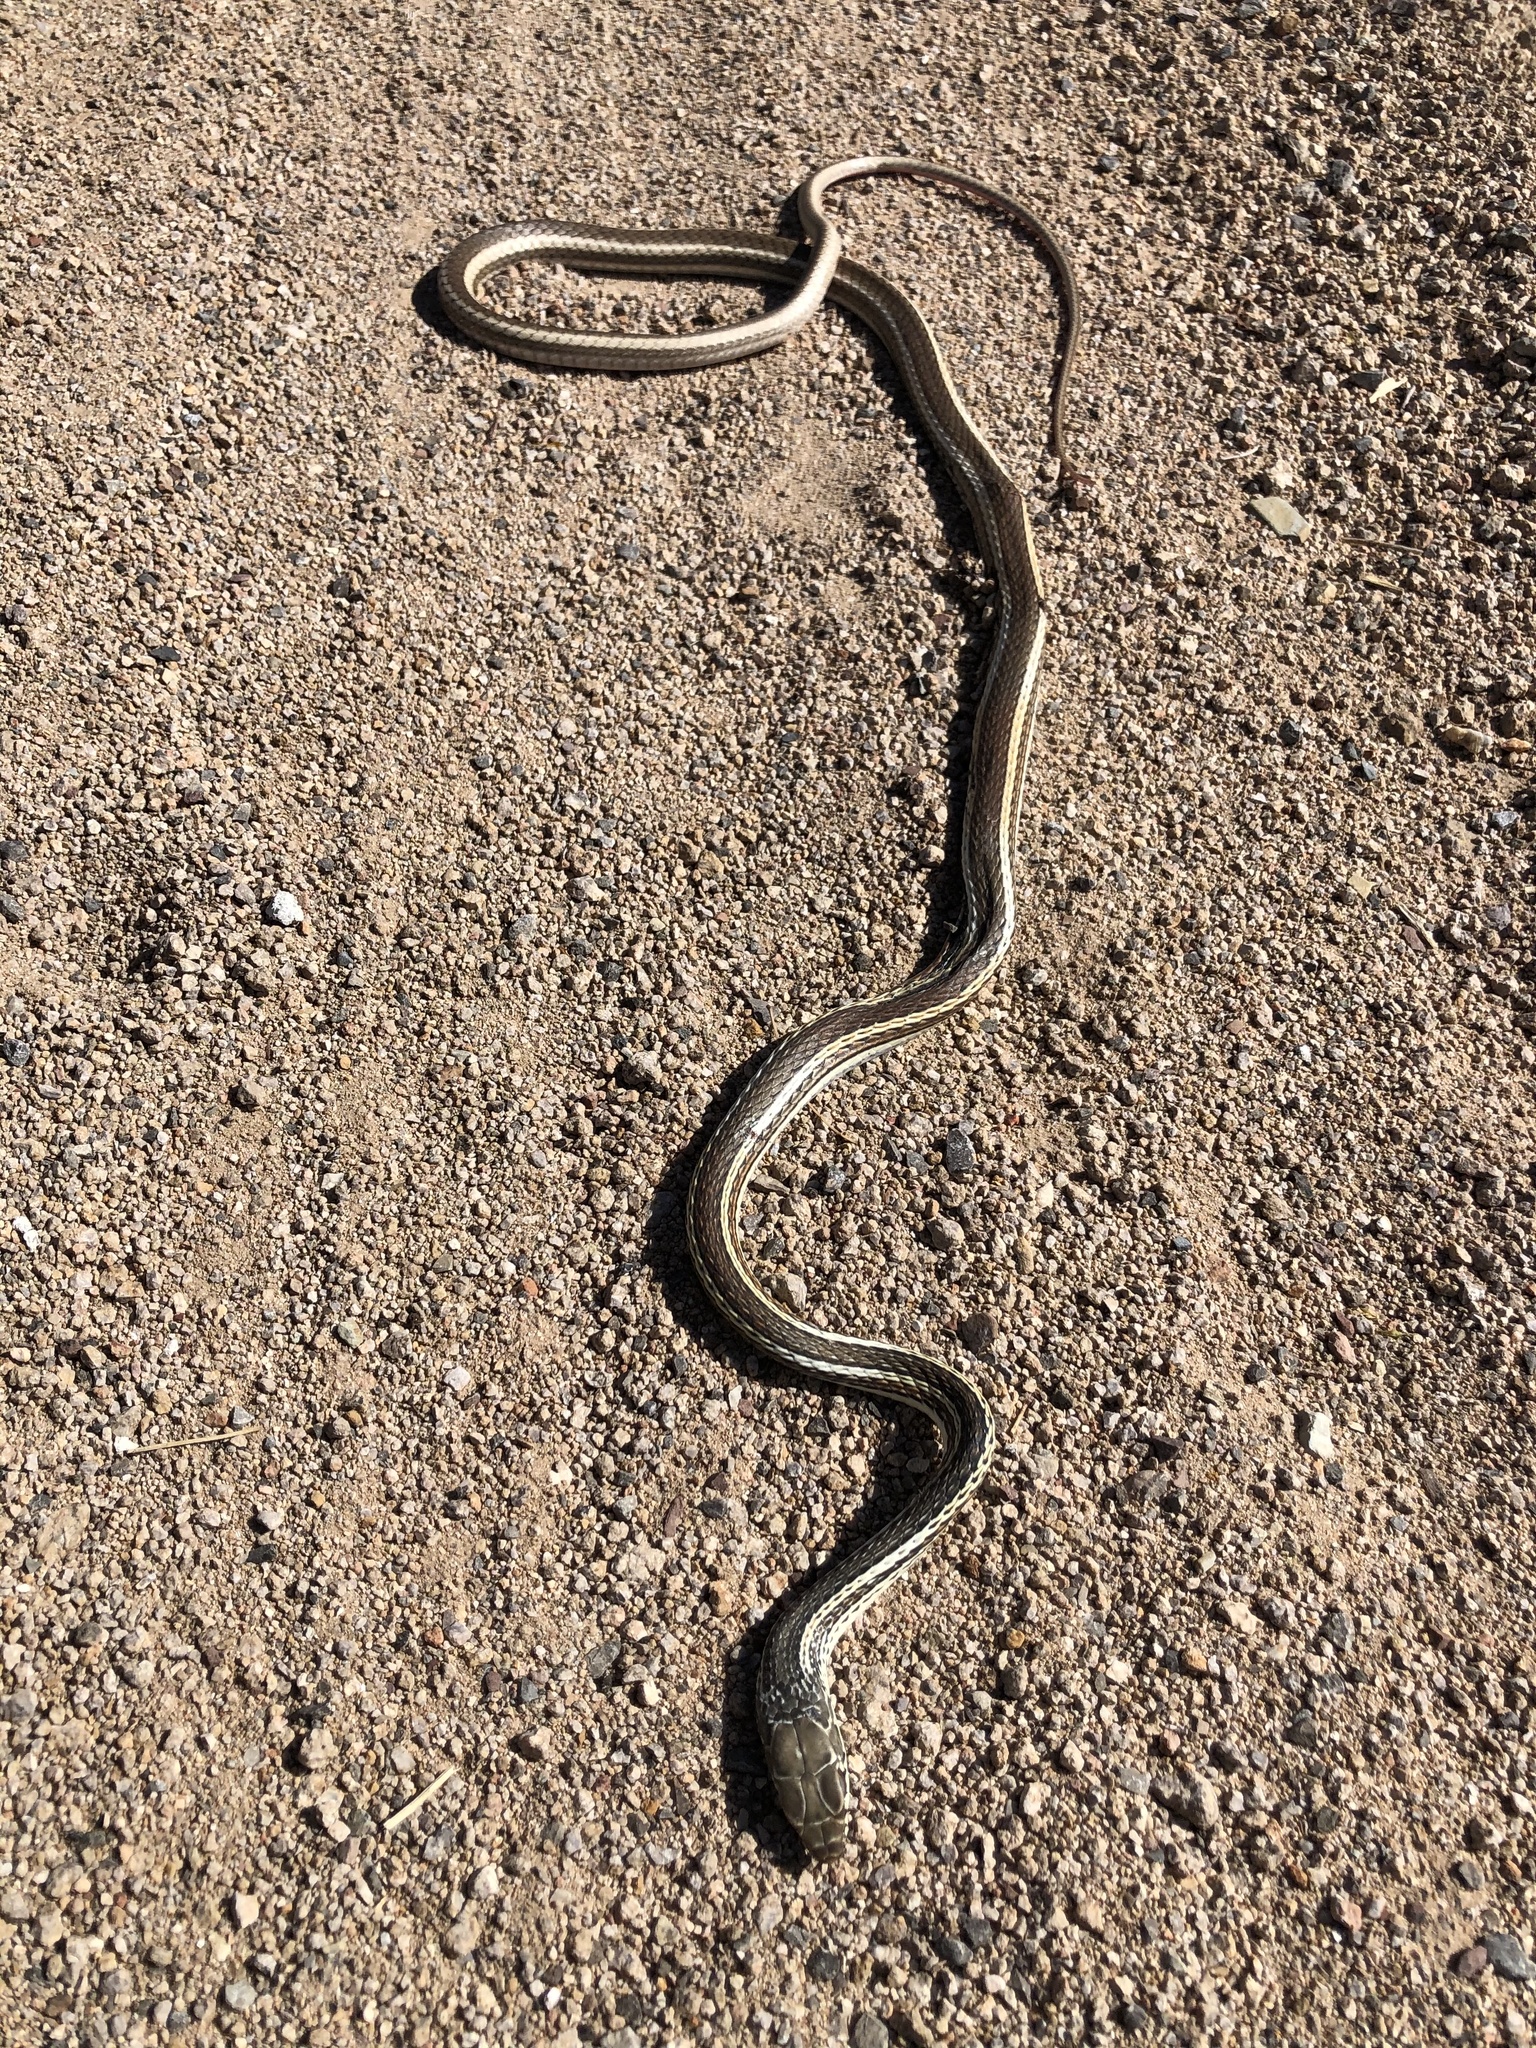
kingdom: Animalia
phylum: Chordata
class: Squamata
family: Colubridae
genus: Masticophis
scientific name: Masticophis taeniatus
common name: Striped whipsnake
